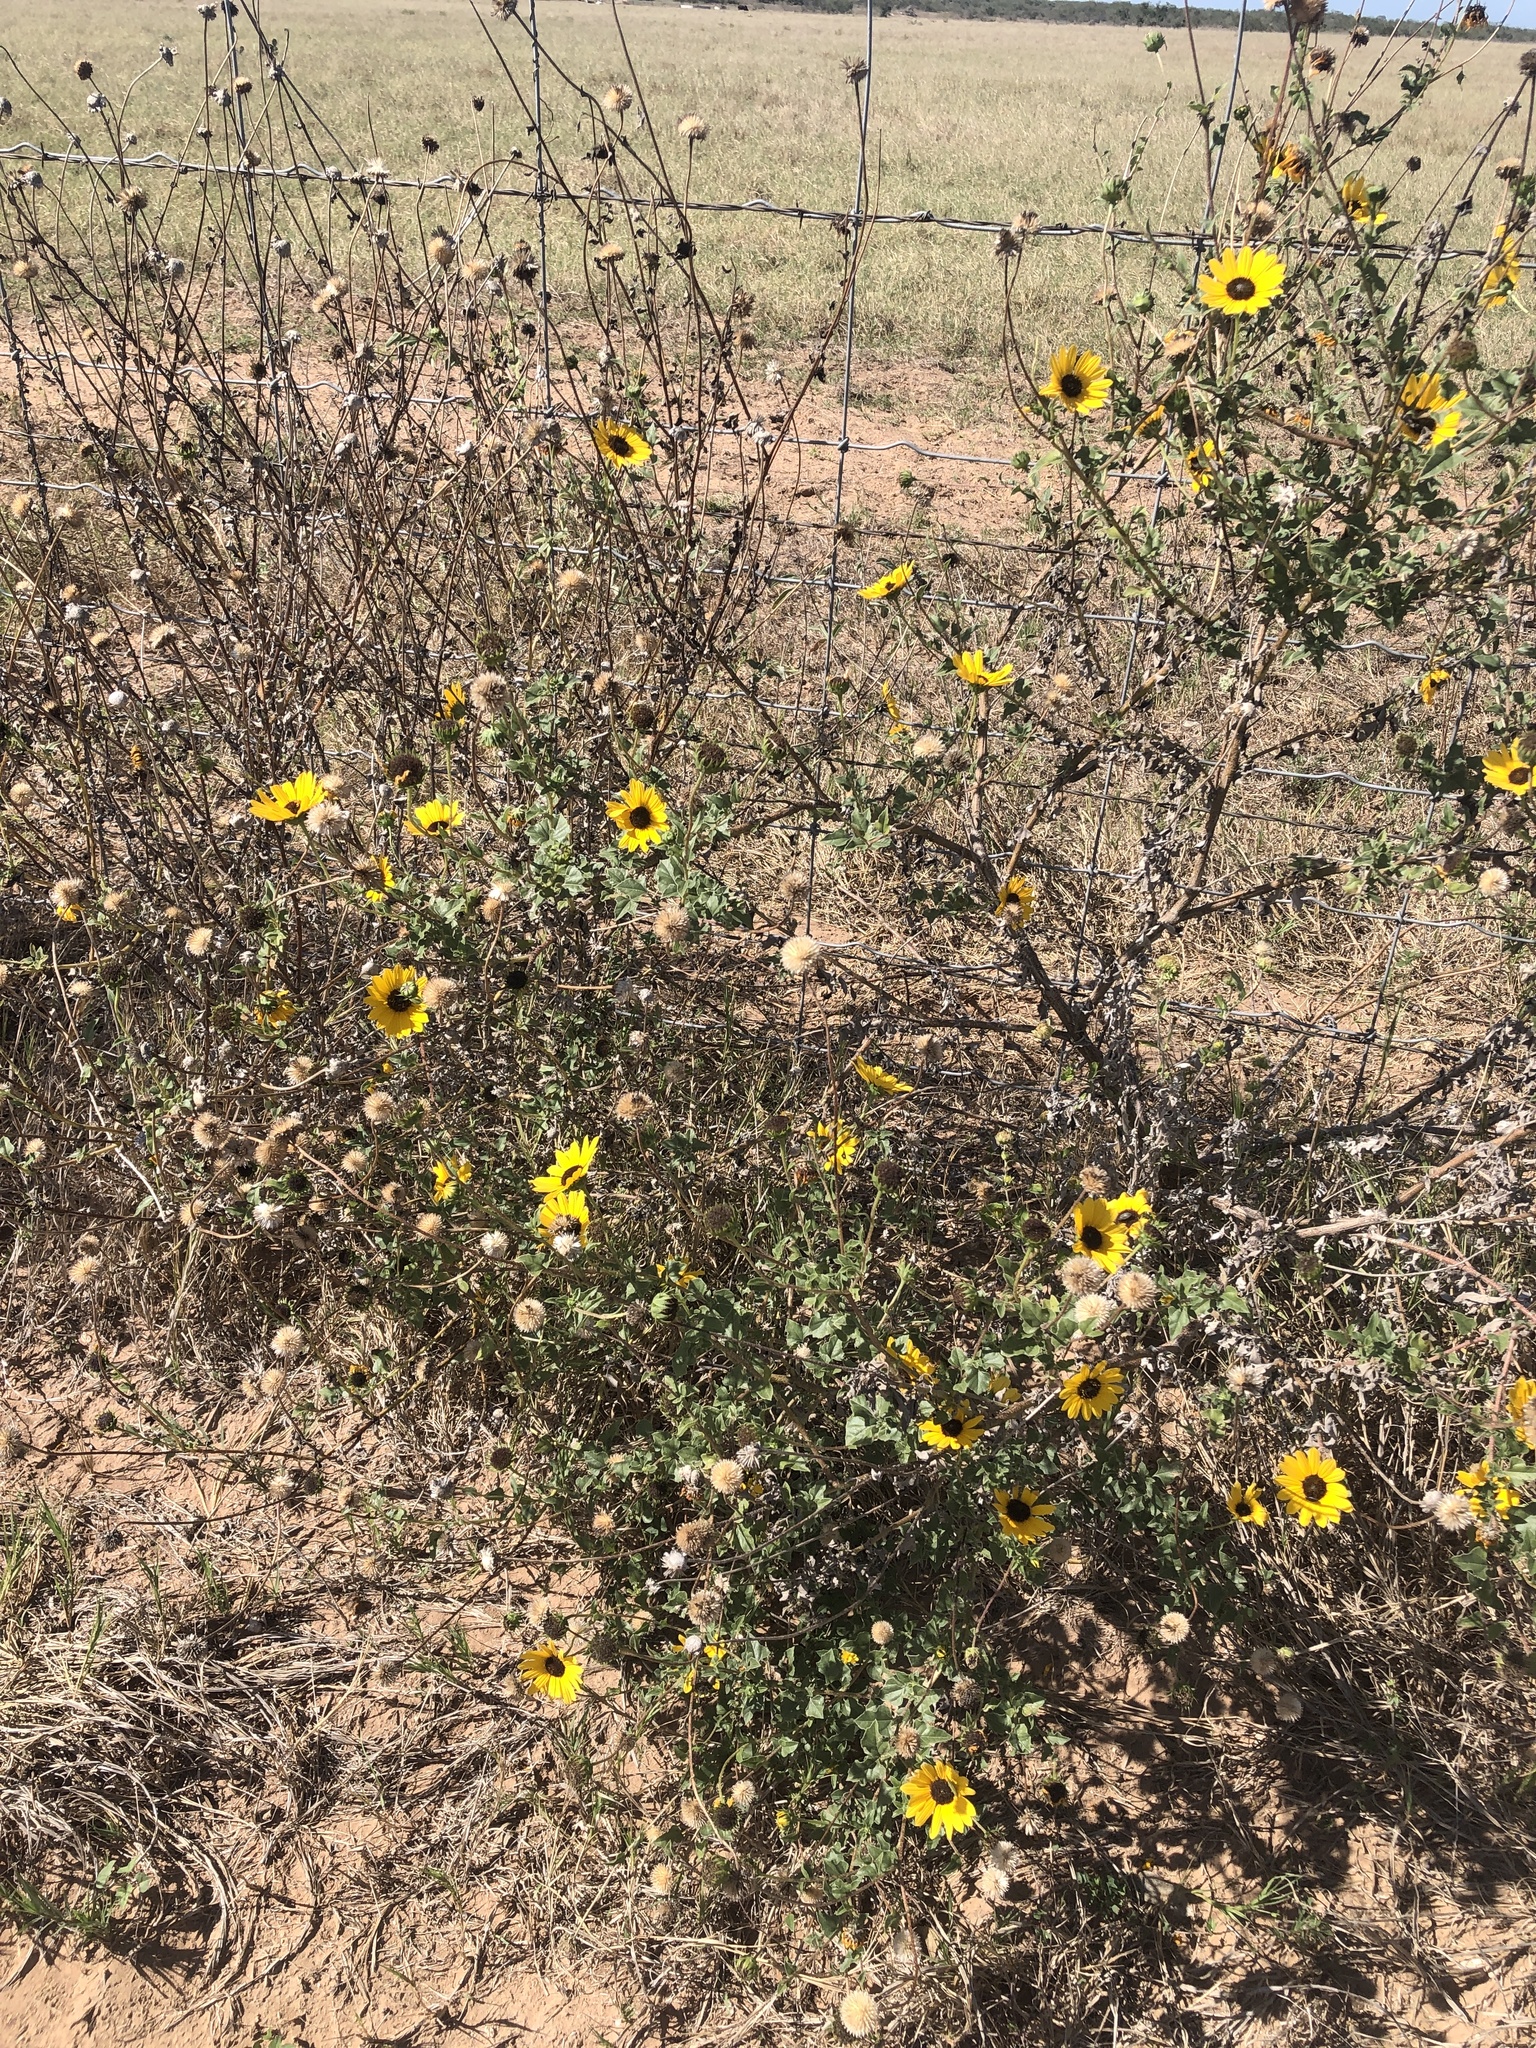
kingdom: Plantae
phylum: Tracheophyta
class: Magnoliopsida
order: Asterales
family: Asteraceae
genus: Helianthus
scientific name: Helianthus praecox
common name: Texas sunflower
